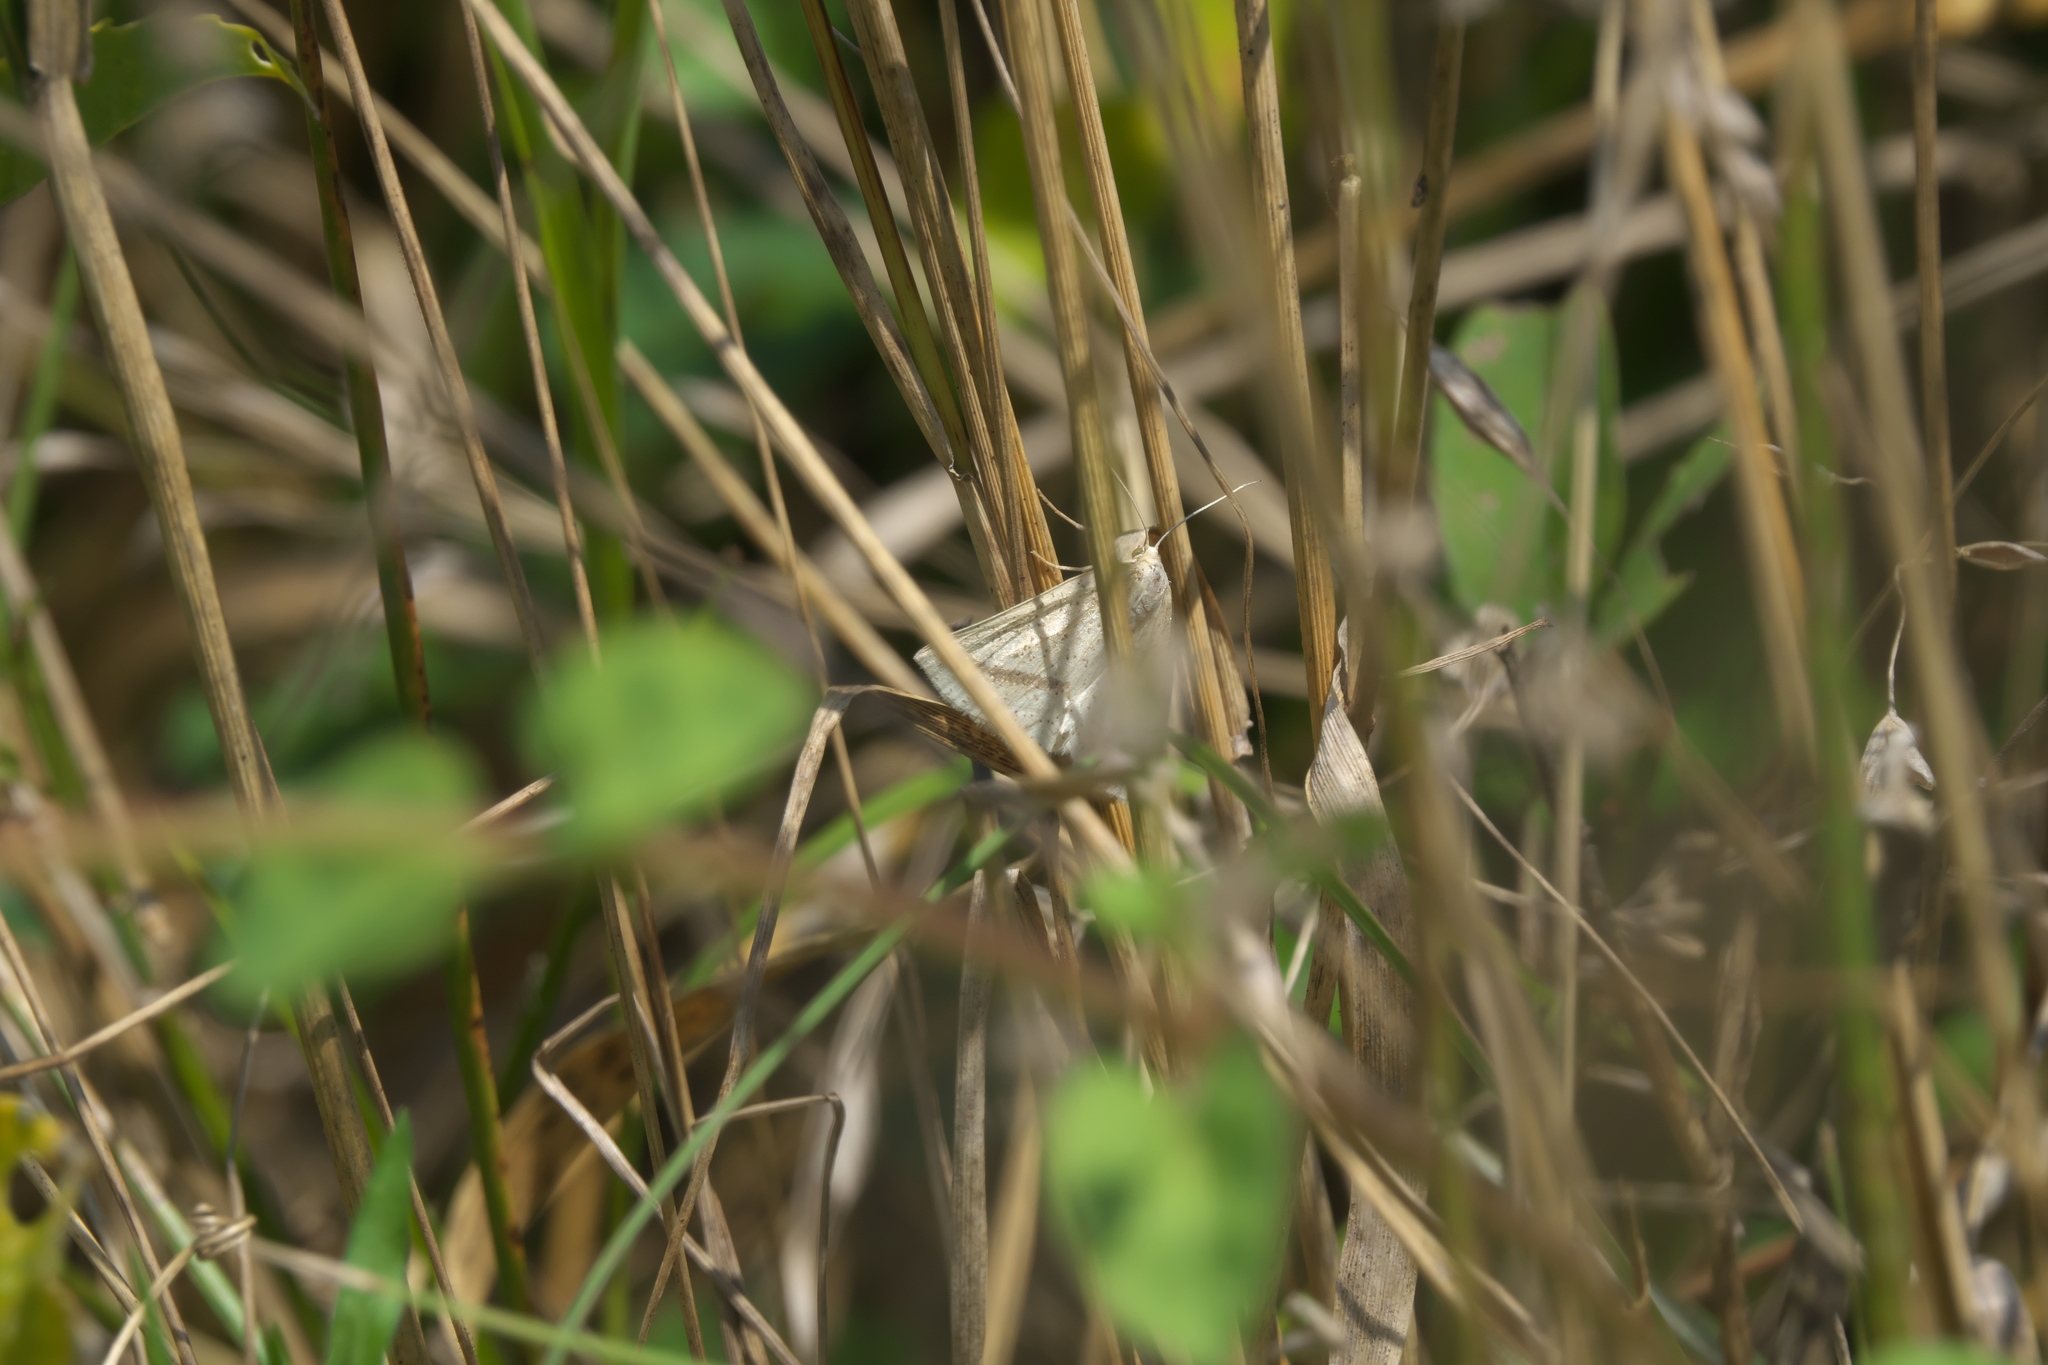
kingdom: Animalia
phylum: Arthropoda
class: Insecta
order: Lepidoptera
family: Geometridae
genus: Lychnosea
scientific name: Lychnosea intermicata
